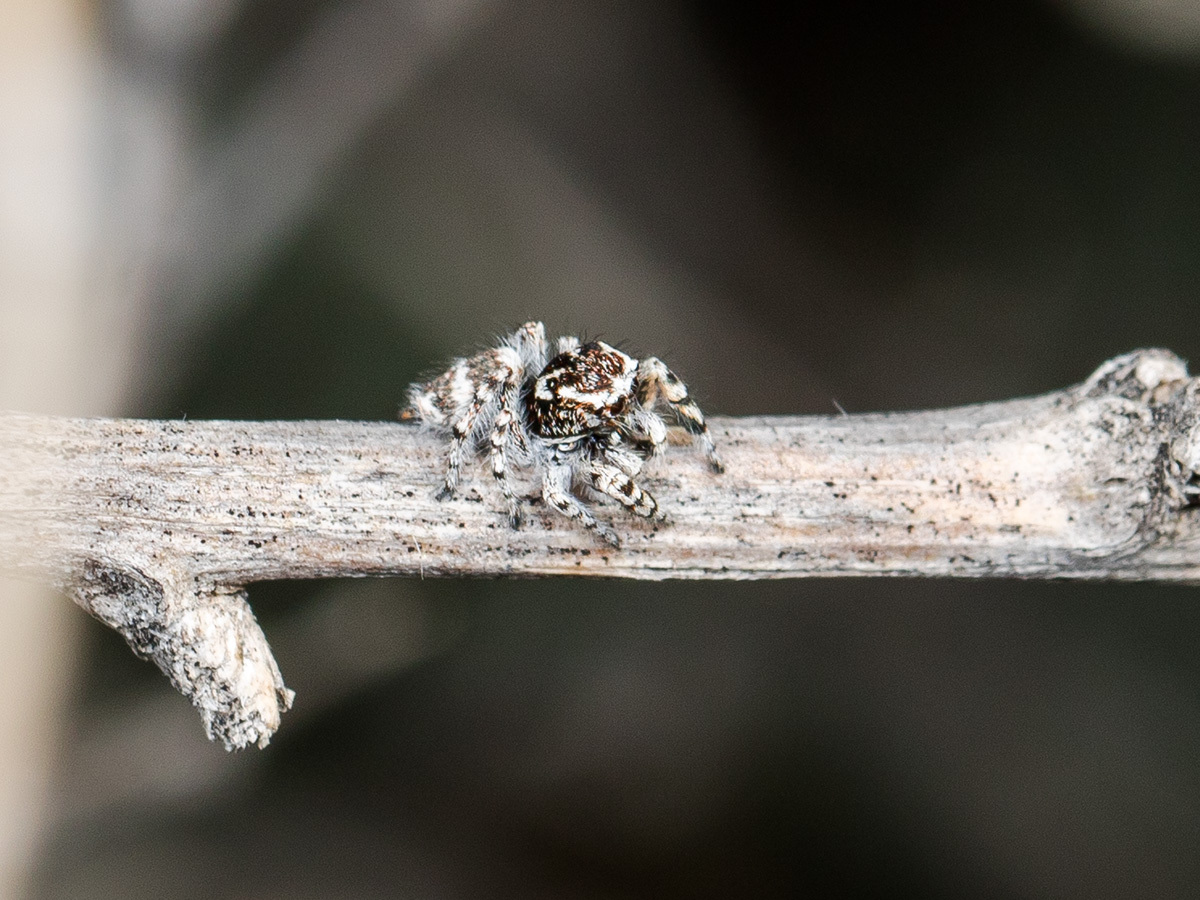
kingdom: Animalia
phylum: Arthropoda
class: Arachnida
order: Araneae
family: Salticidae
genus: Pseudomogrus
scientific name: Pseudomogrus albocinctus
